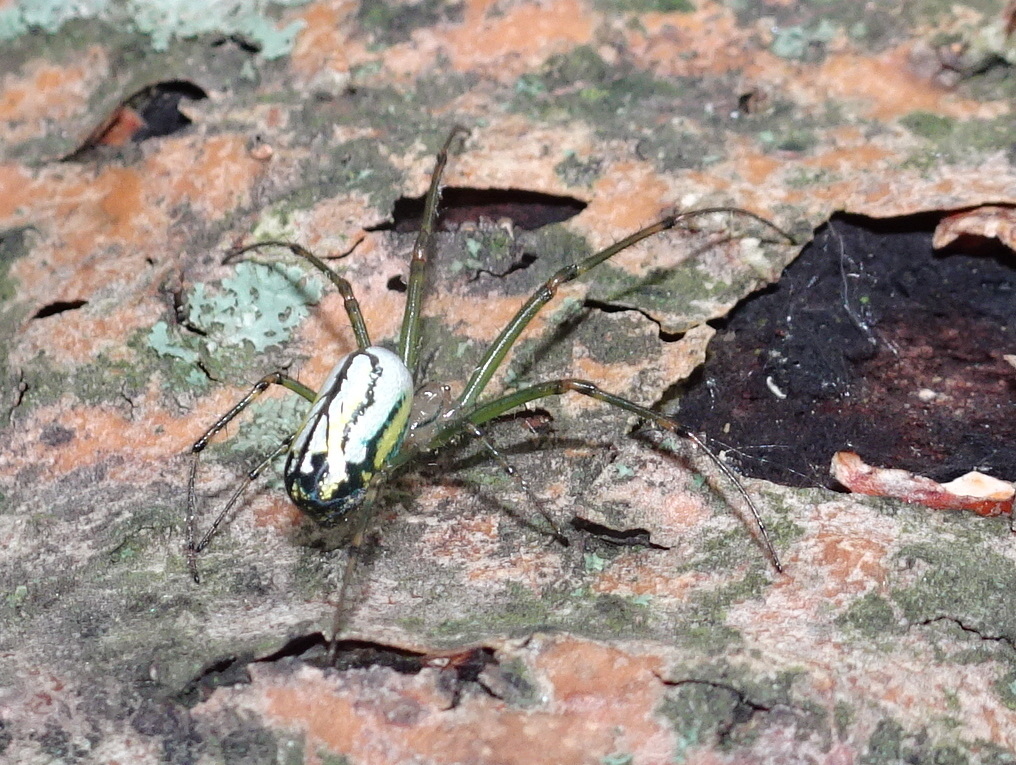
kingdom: Animalia
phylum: Arthropoda
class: Arachnida
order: Araneae
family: Tetragnathidae
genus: Leucauge
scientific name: Leucauge venusta
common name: Longjawed orb weavers
